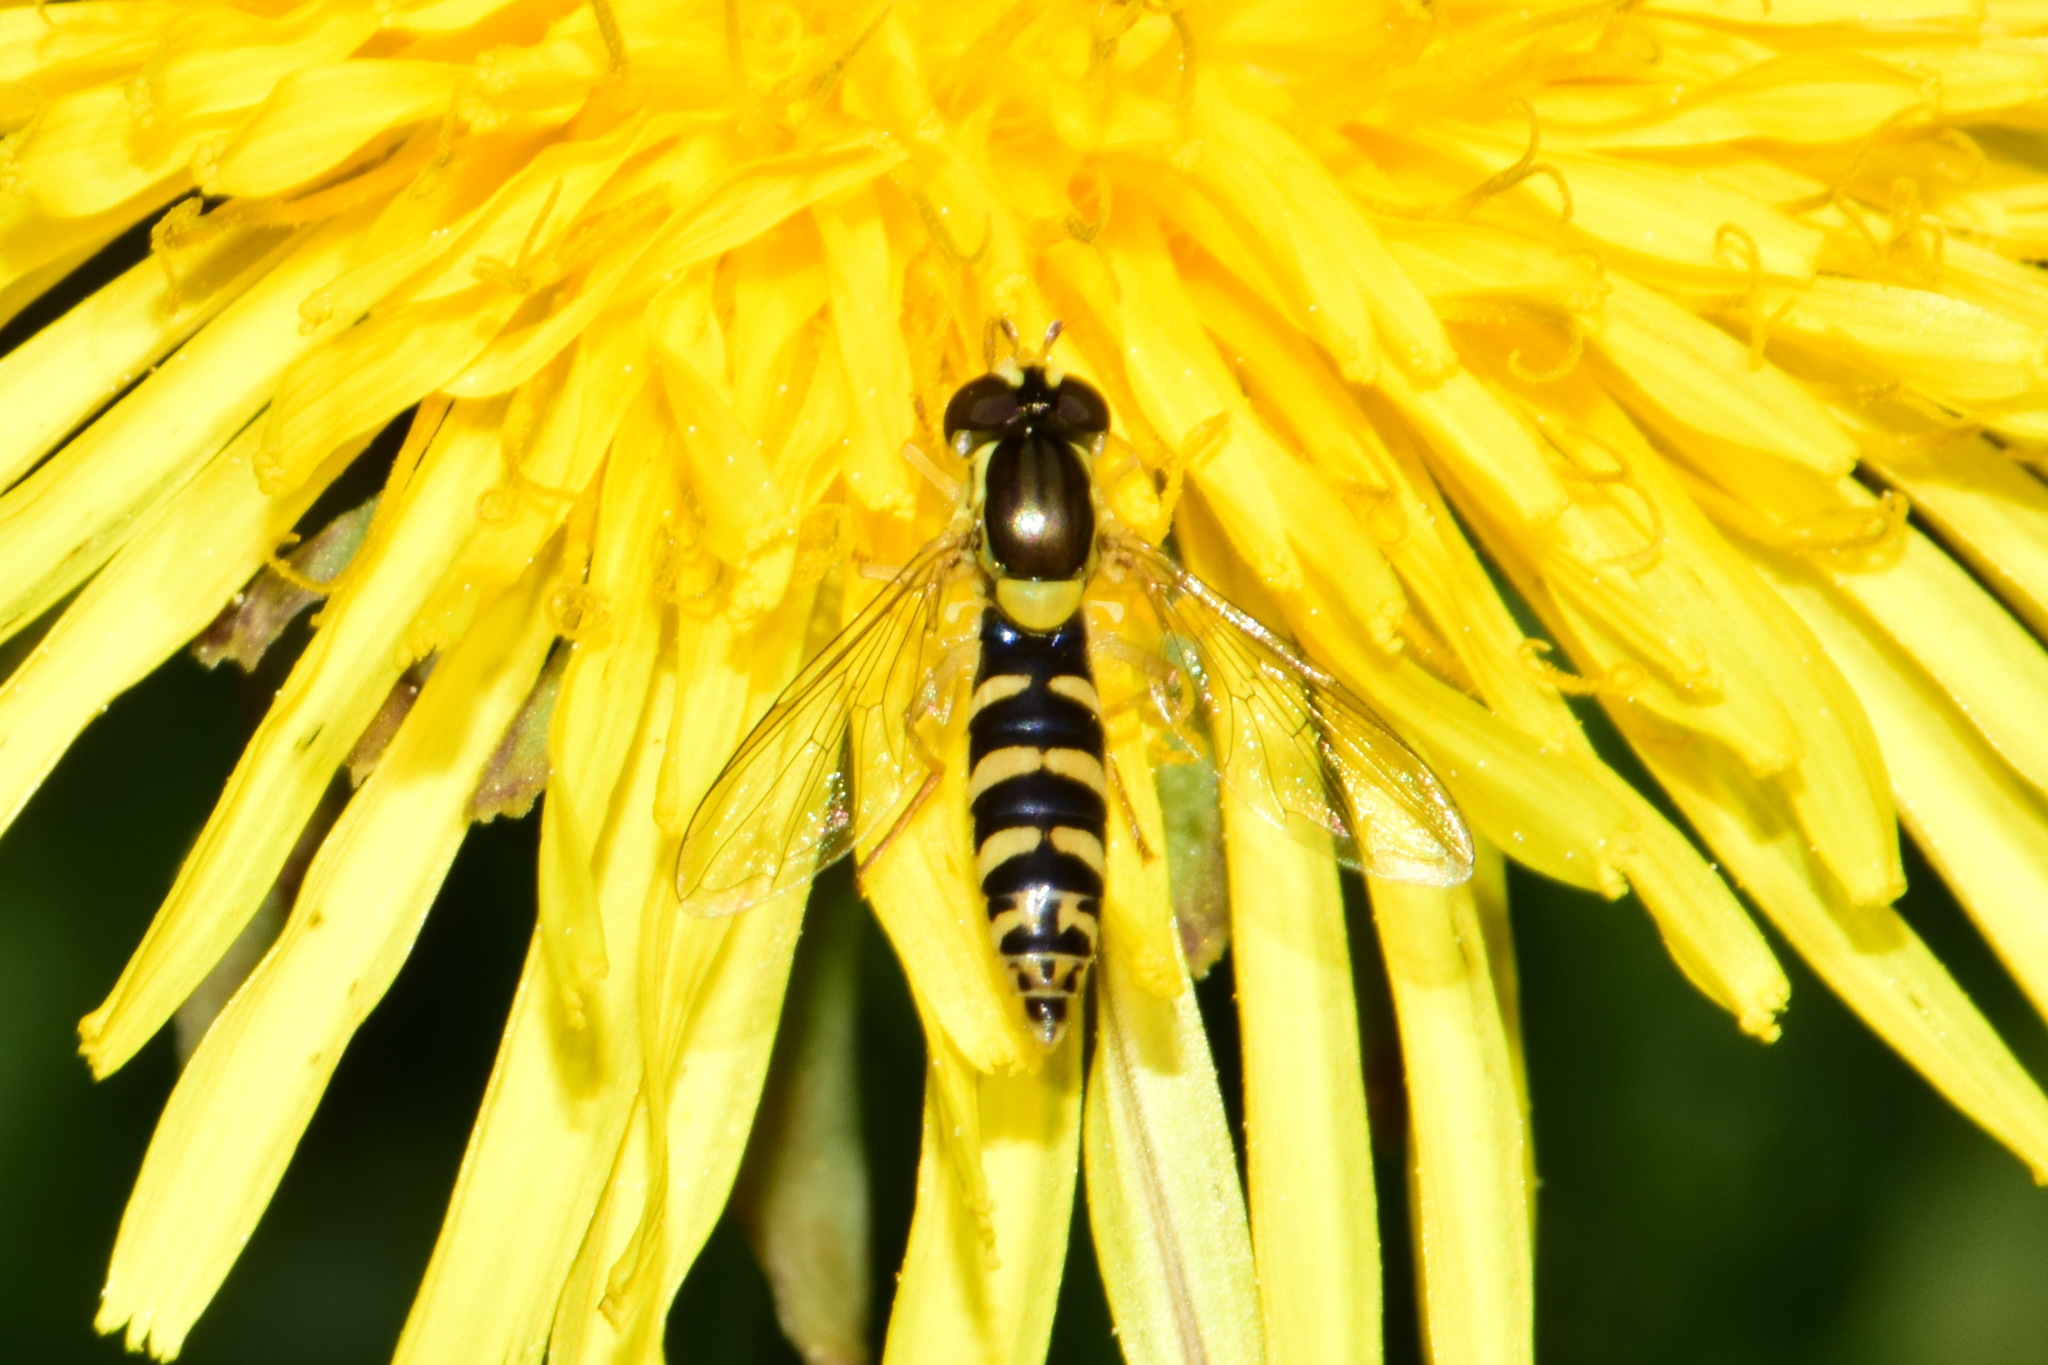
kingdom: Animalia
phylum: Arthropoda
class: Insecta
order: Diptera
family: Syrphidae
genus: Sphaerophoria
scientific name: Sphaerophoria
